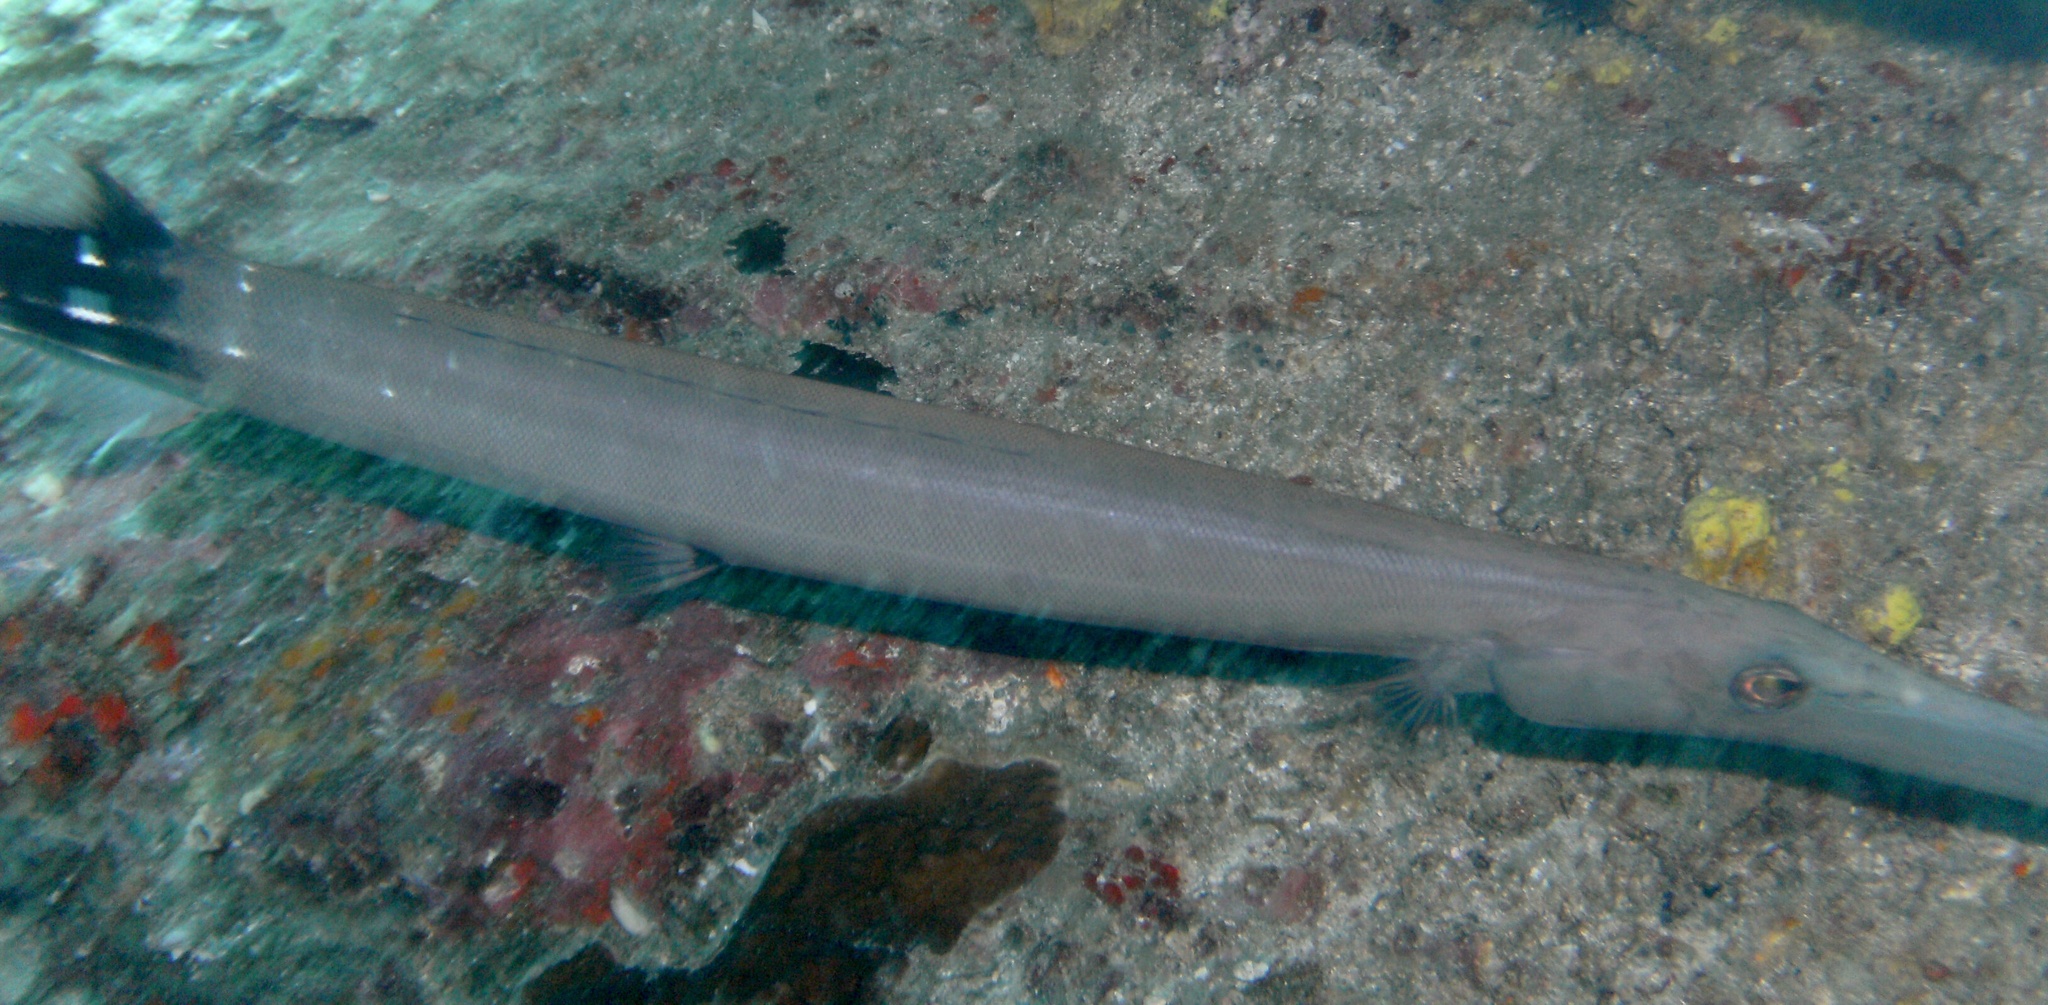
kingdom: Animalia
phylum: Chordata
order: Syngnathiformes
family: Aulostomidae
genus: Aulostomus
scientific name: Aulostomus chinensis
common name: Chinese trumpetfish
